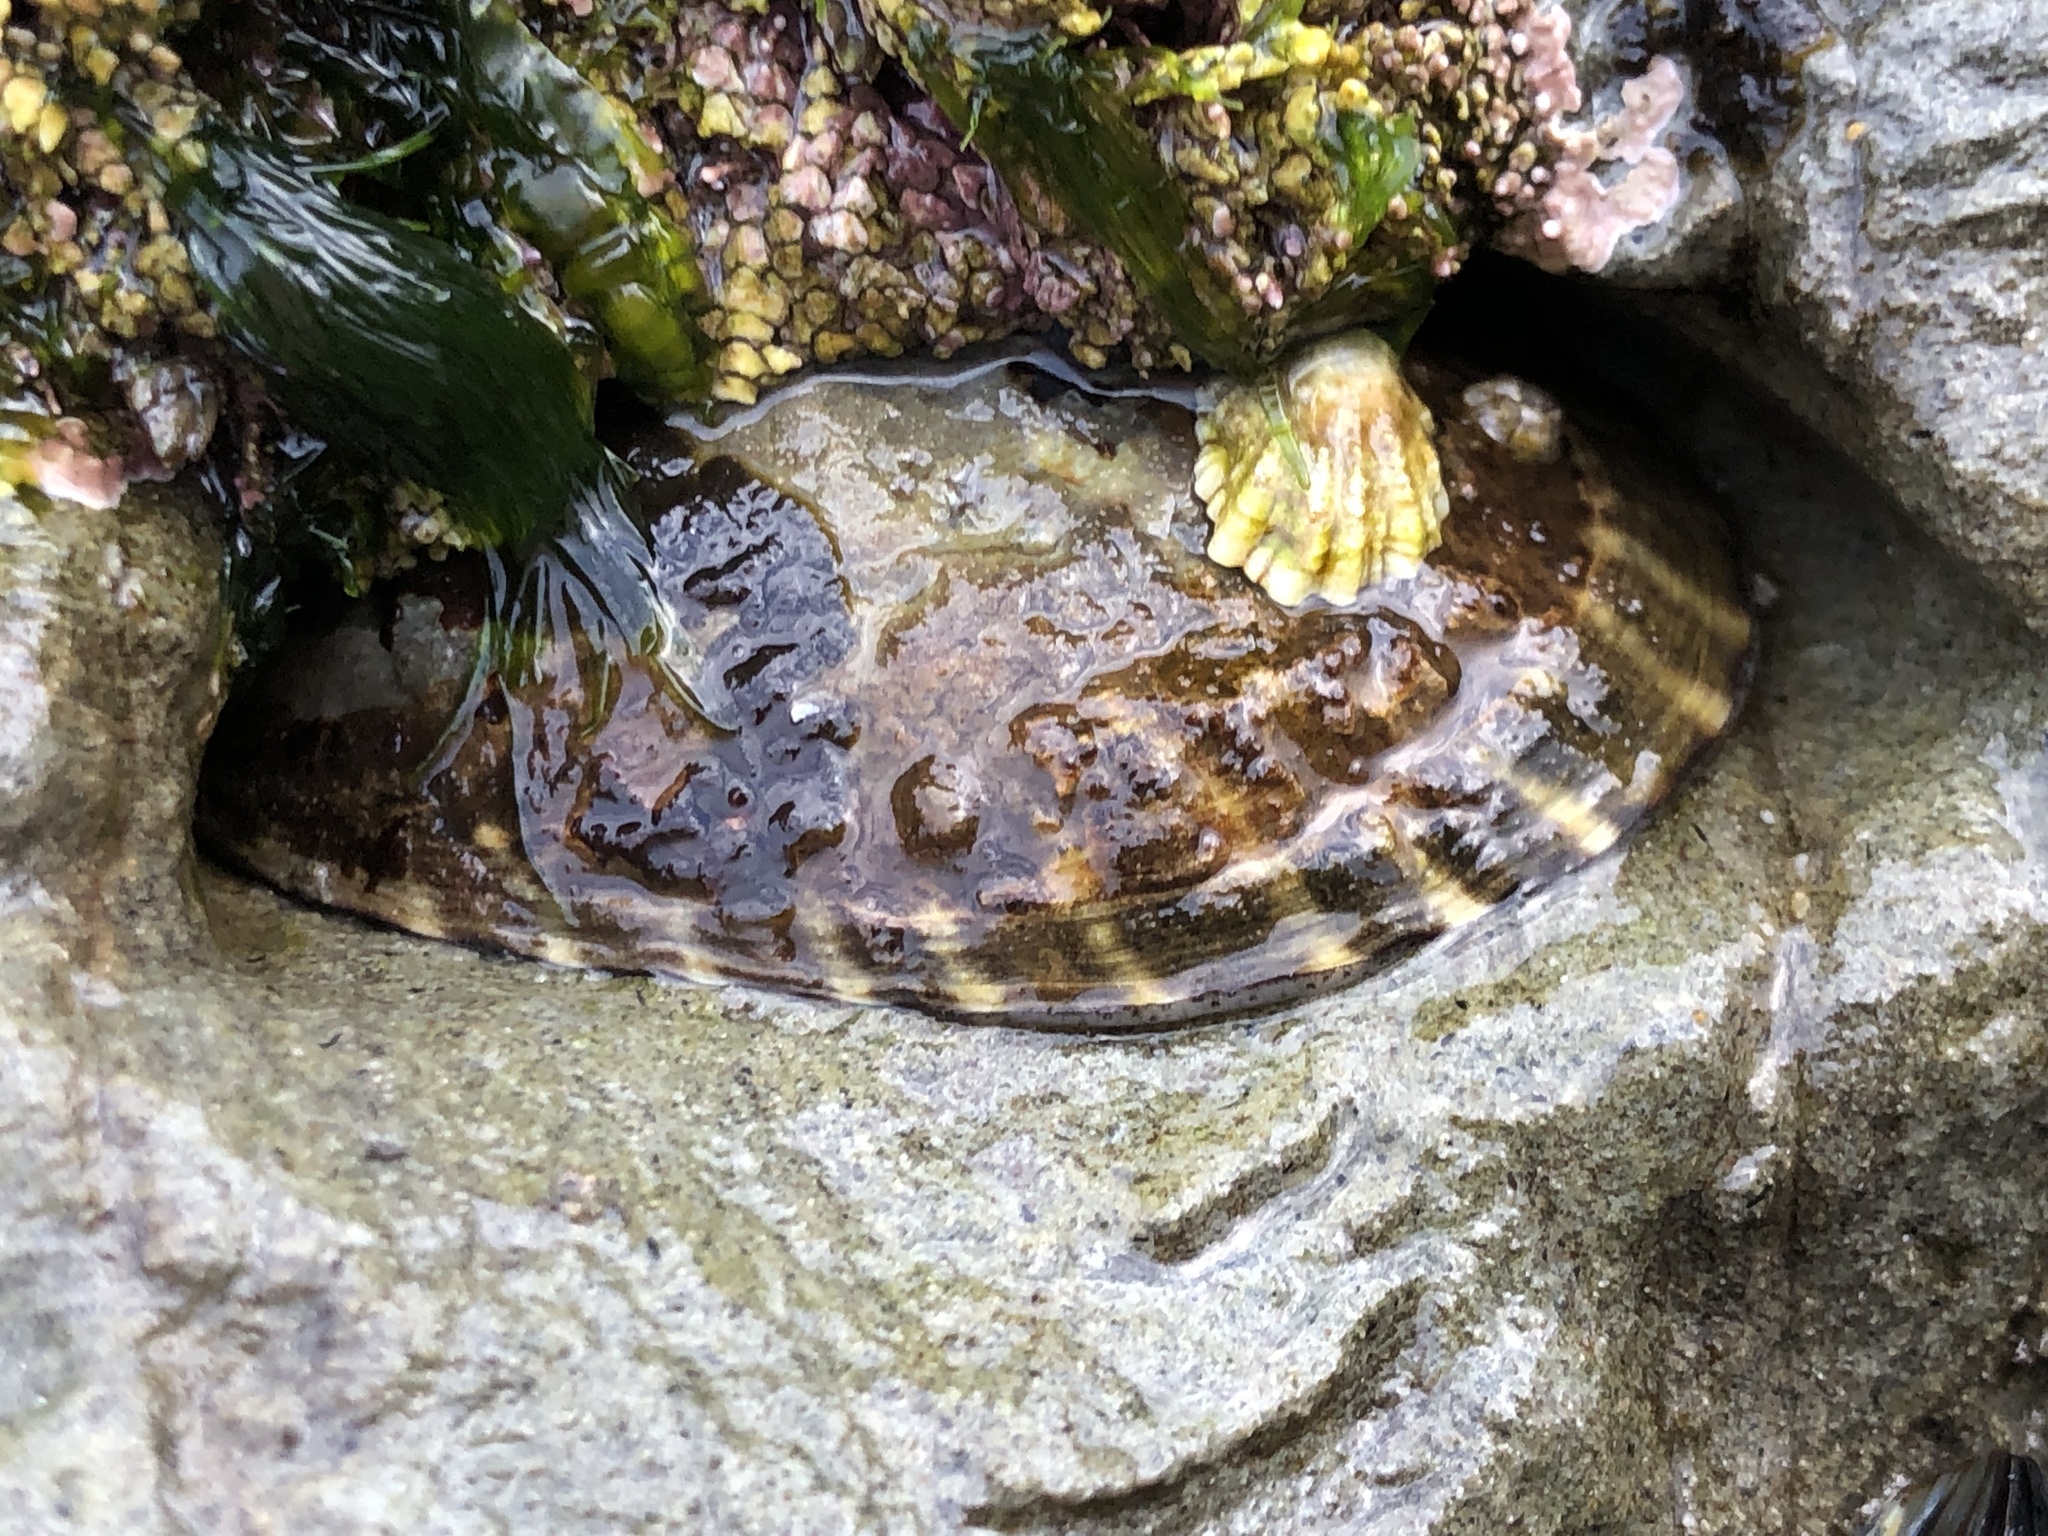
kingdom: Animalia
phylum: Mollusca
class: Gastropoda
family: Lottiidae
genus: Lottia
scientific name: Lottia gigantea
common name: Owl limpet
